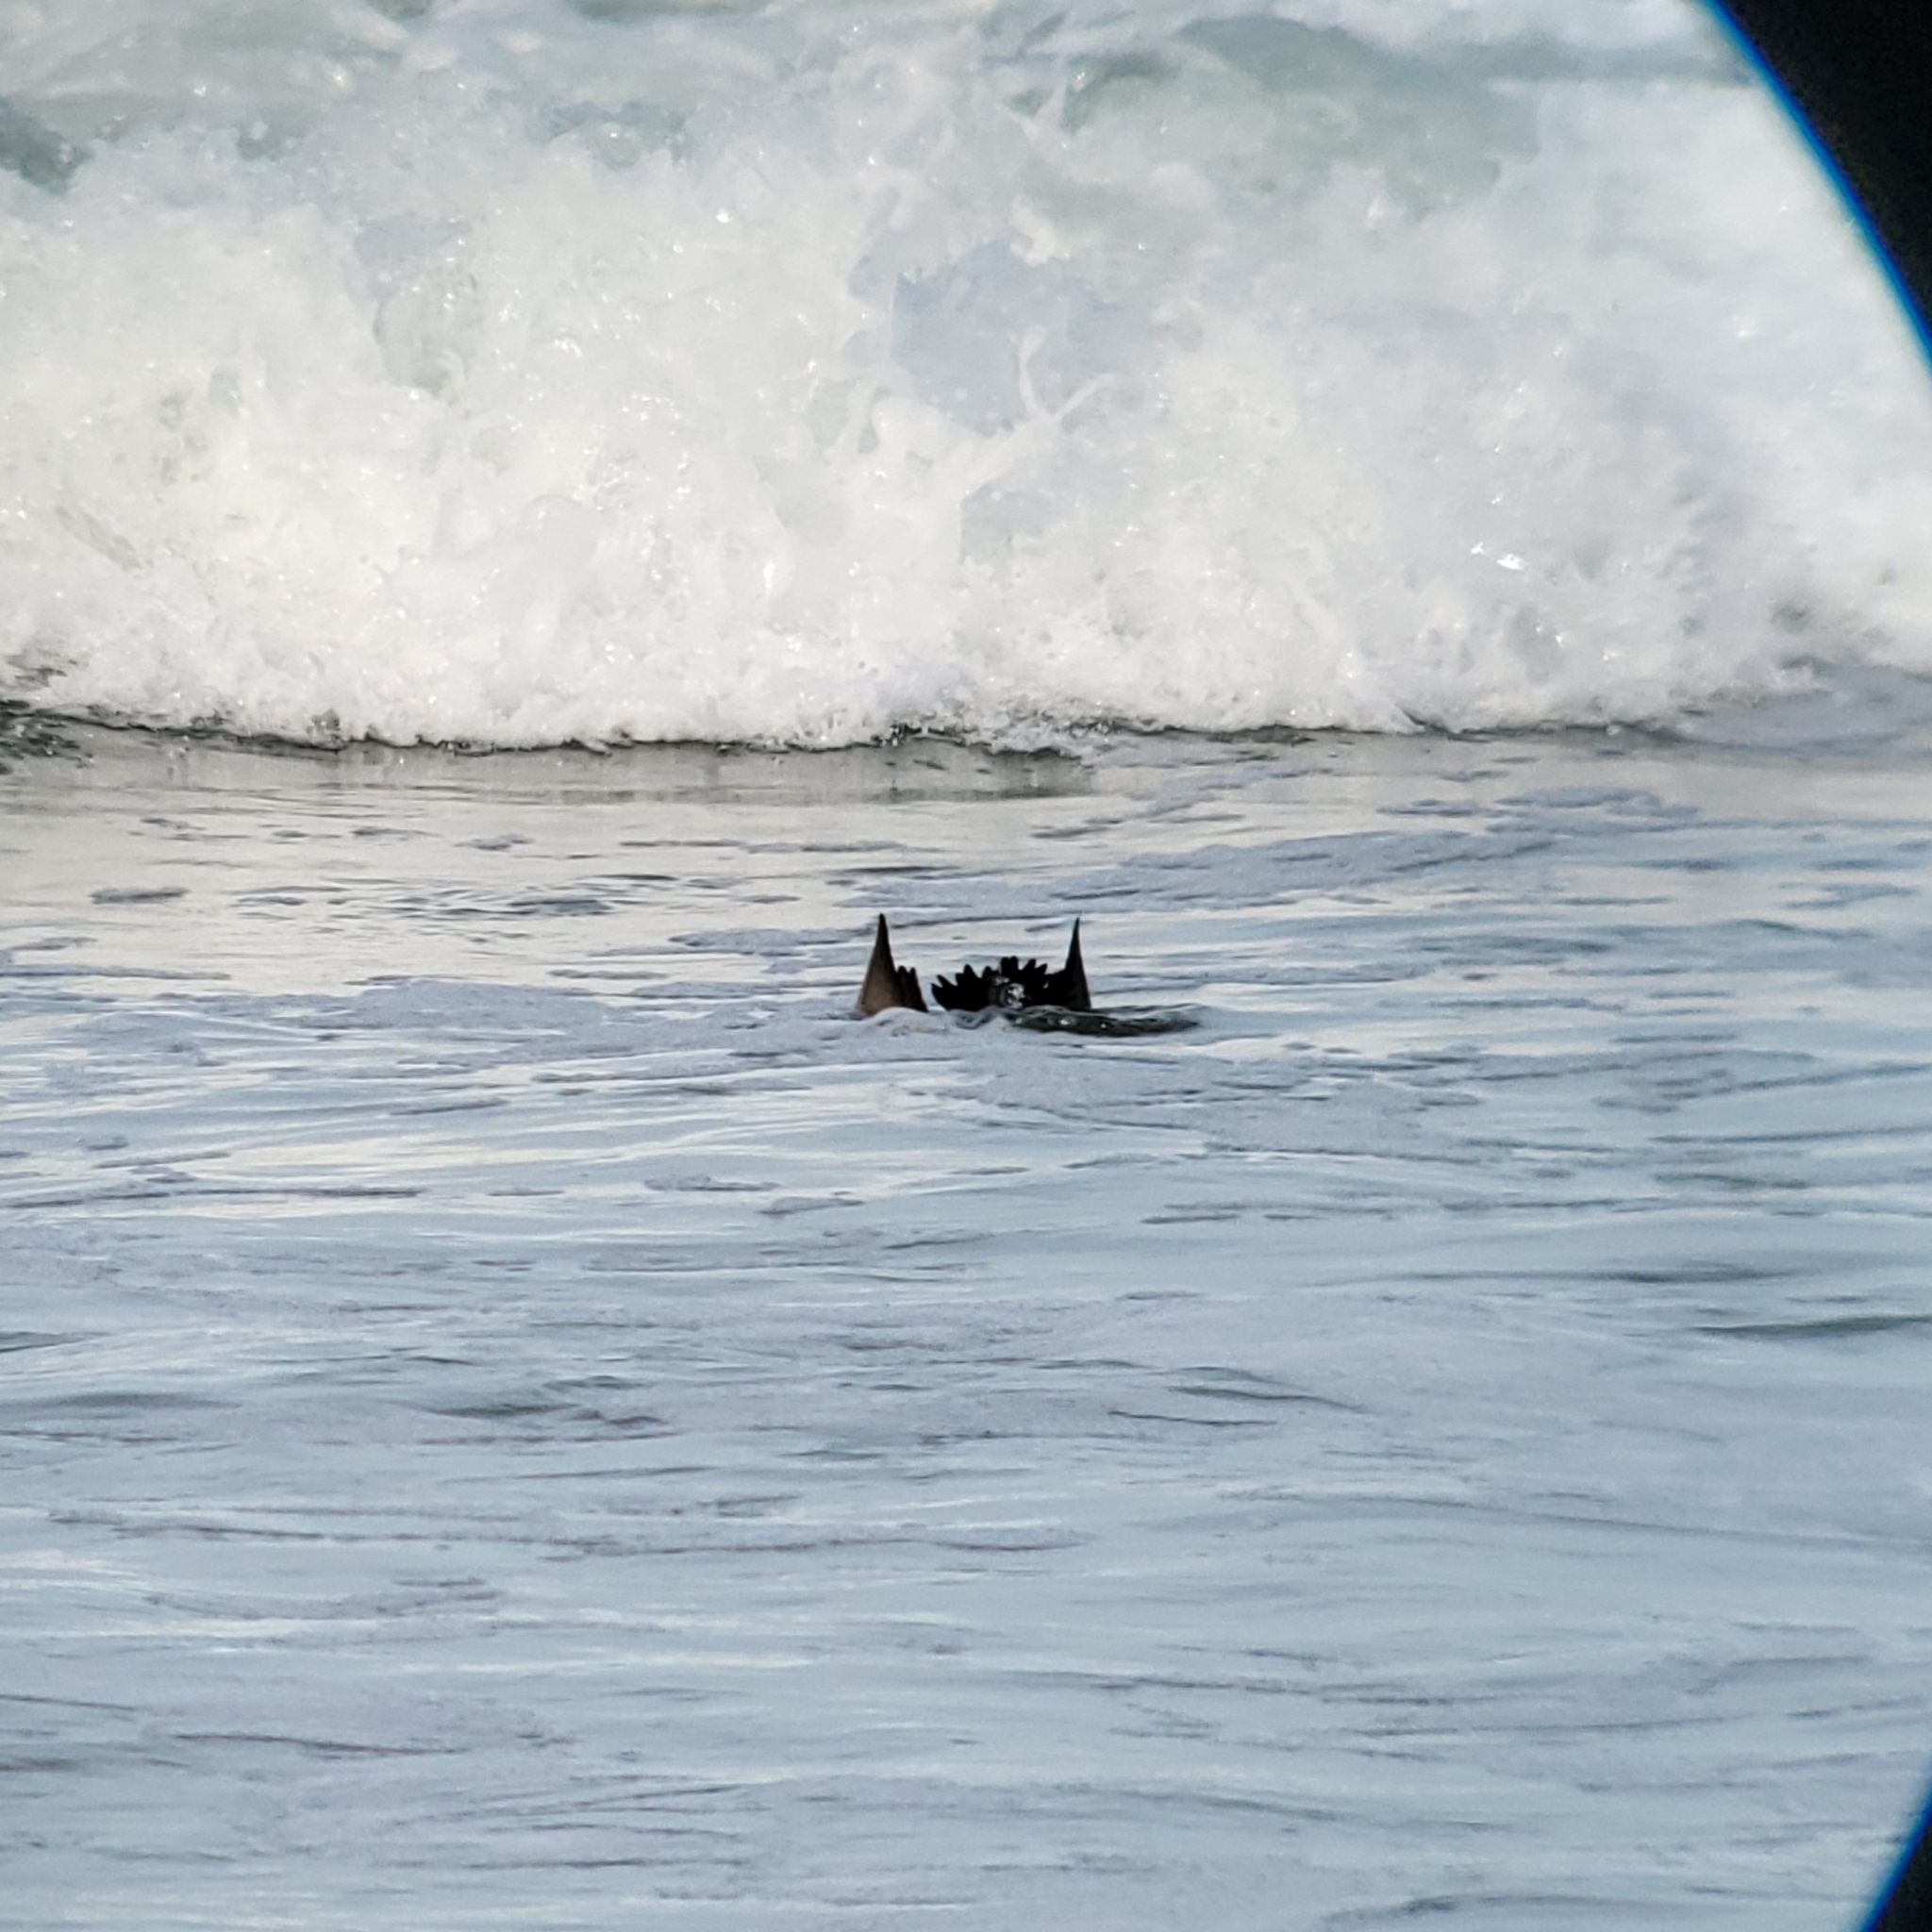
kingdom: Animalia
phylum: Chordata
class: Aves
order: Anseriformes
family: Anatidae
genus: Melanitta
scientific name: Melanitta perspicillata
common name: Surf scoter
